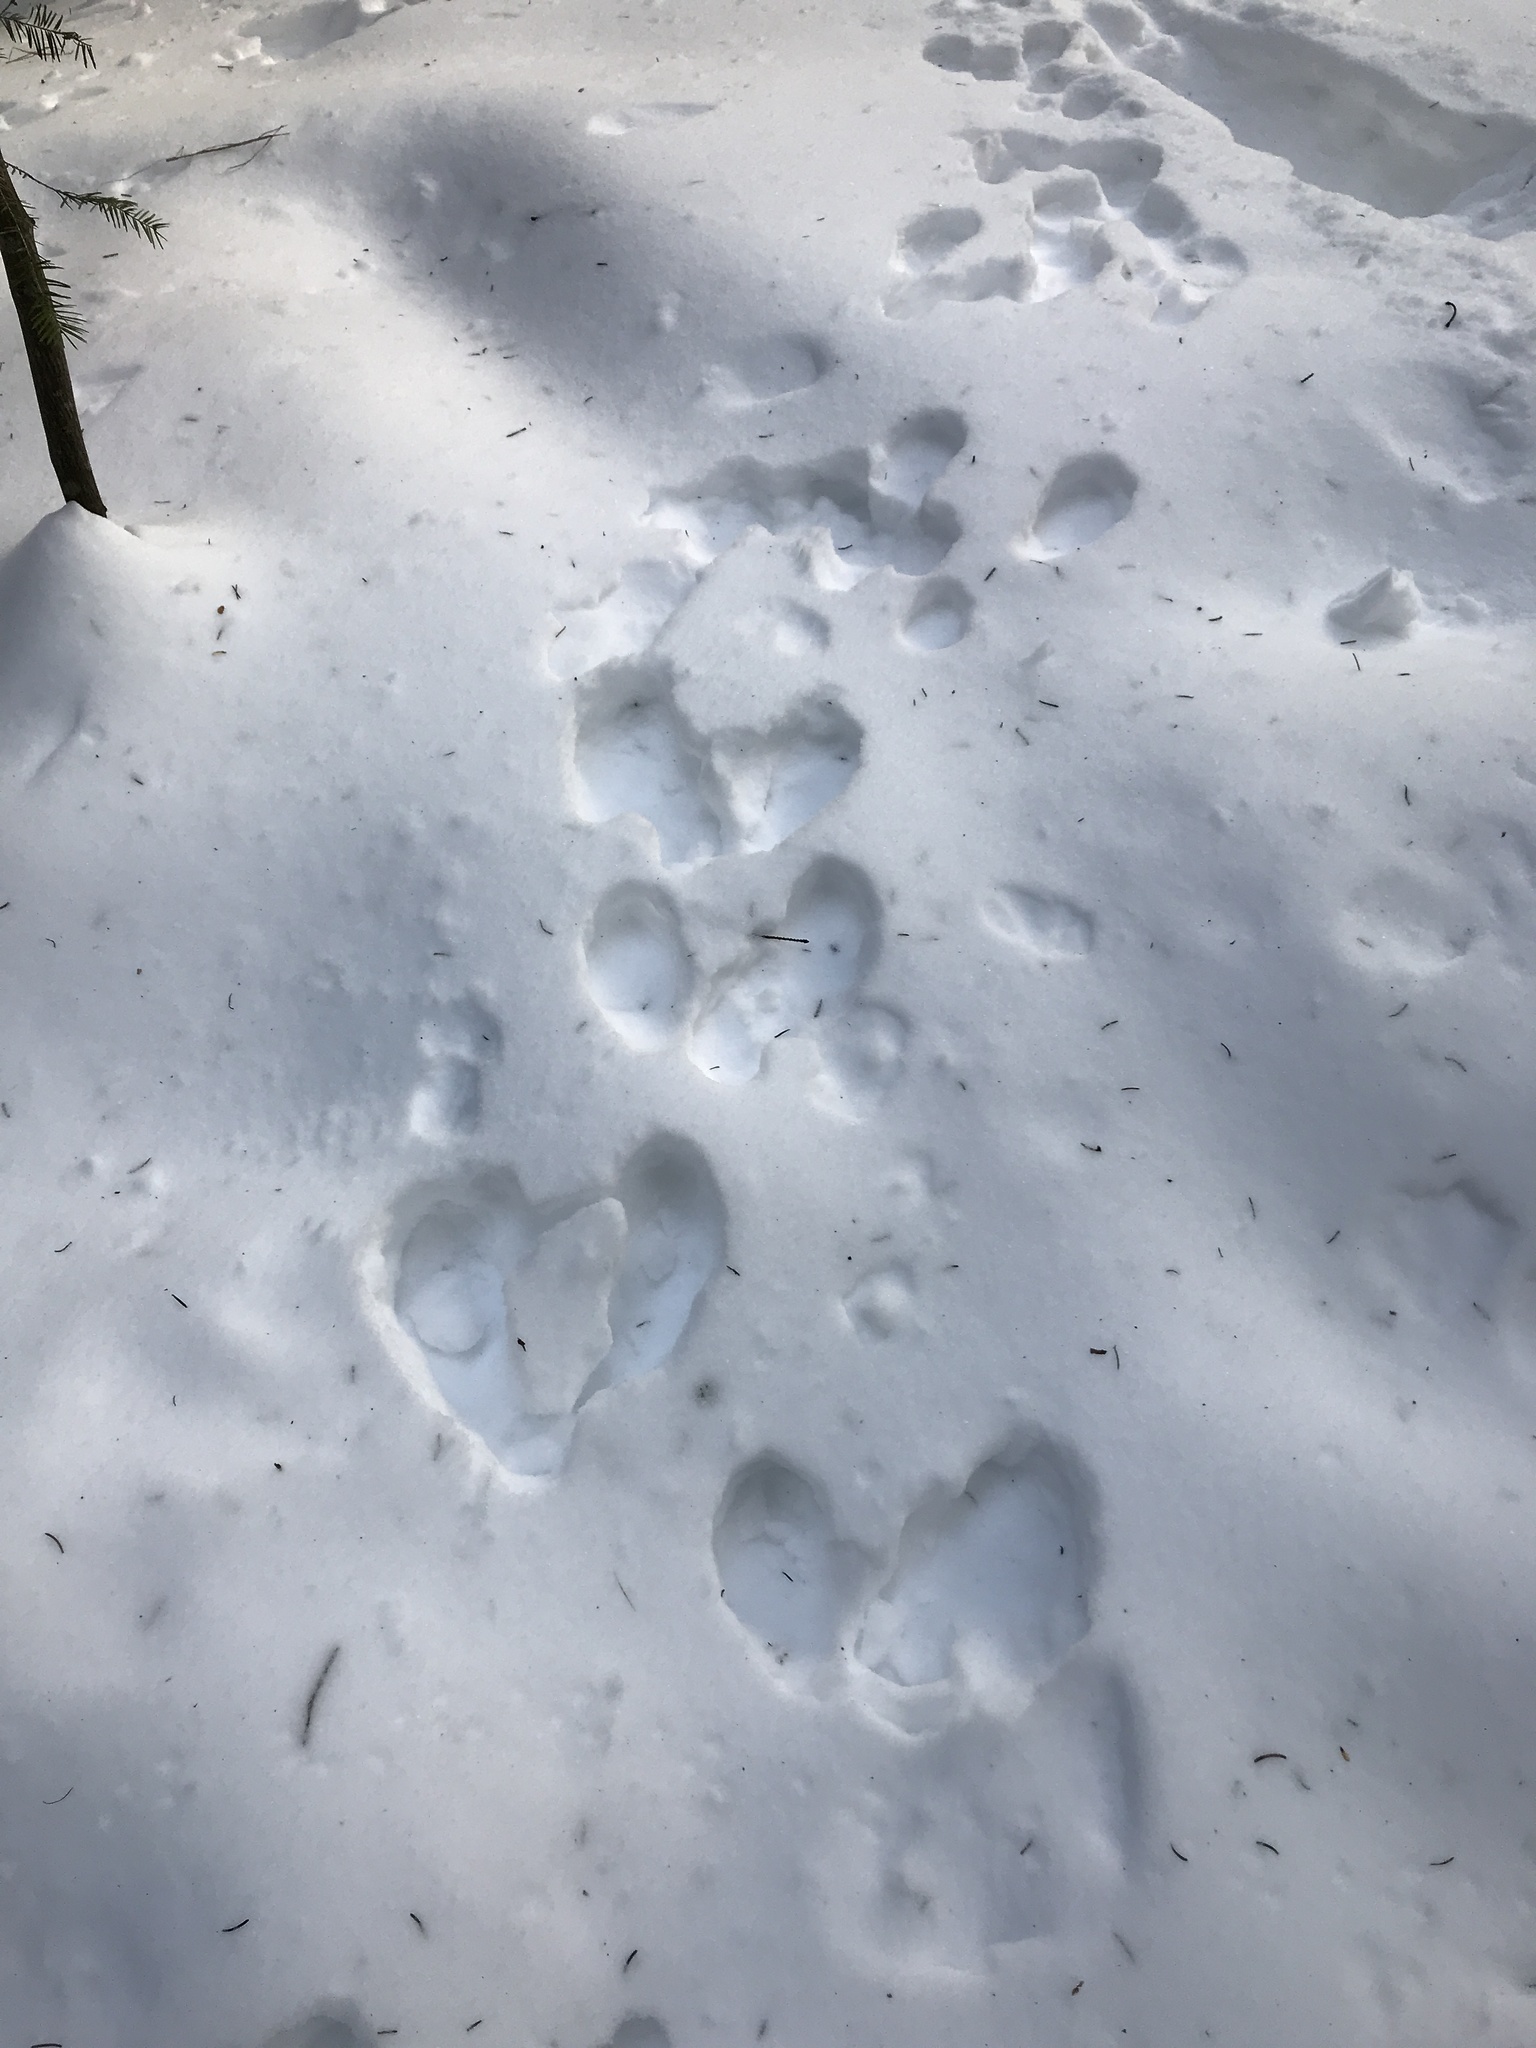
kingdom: Animalia
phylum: Chordata
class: Mammalia
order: Lagomorpha
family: Leporidae
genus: Lepus
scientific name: Lepus americanus
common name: Snowshoe hare
